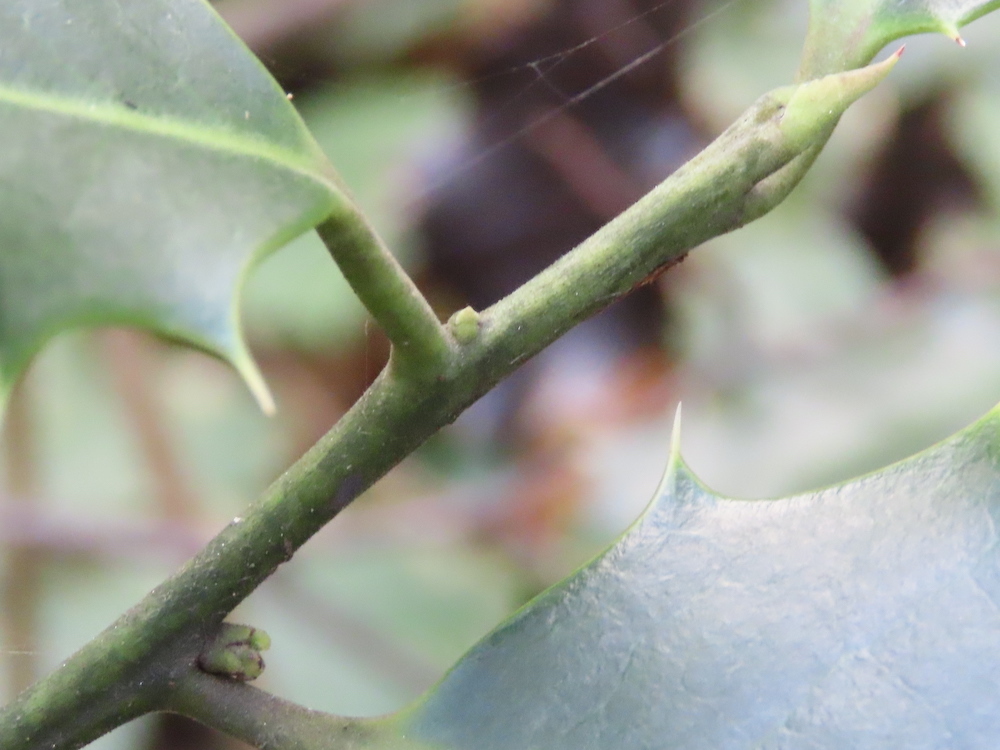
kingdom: Plantae
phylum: Tracheophyta
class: Magnoliopsida
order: Aquifoliales
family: Aquifoliaceae
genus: Ilex
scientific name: Ilex aquifolium
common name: English holly
